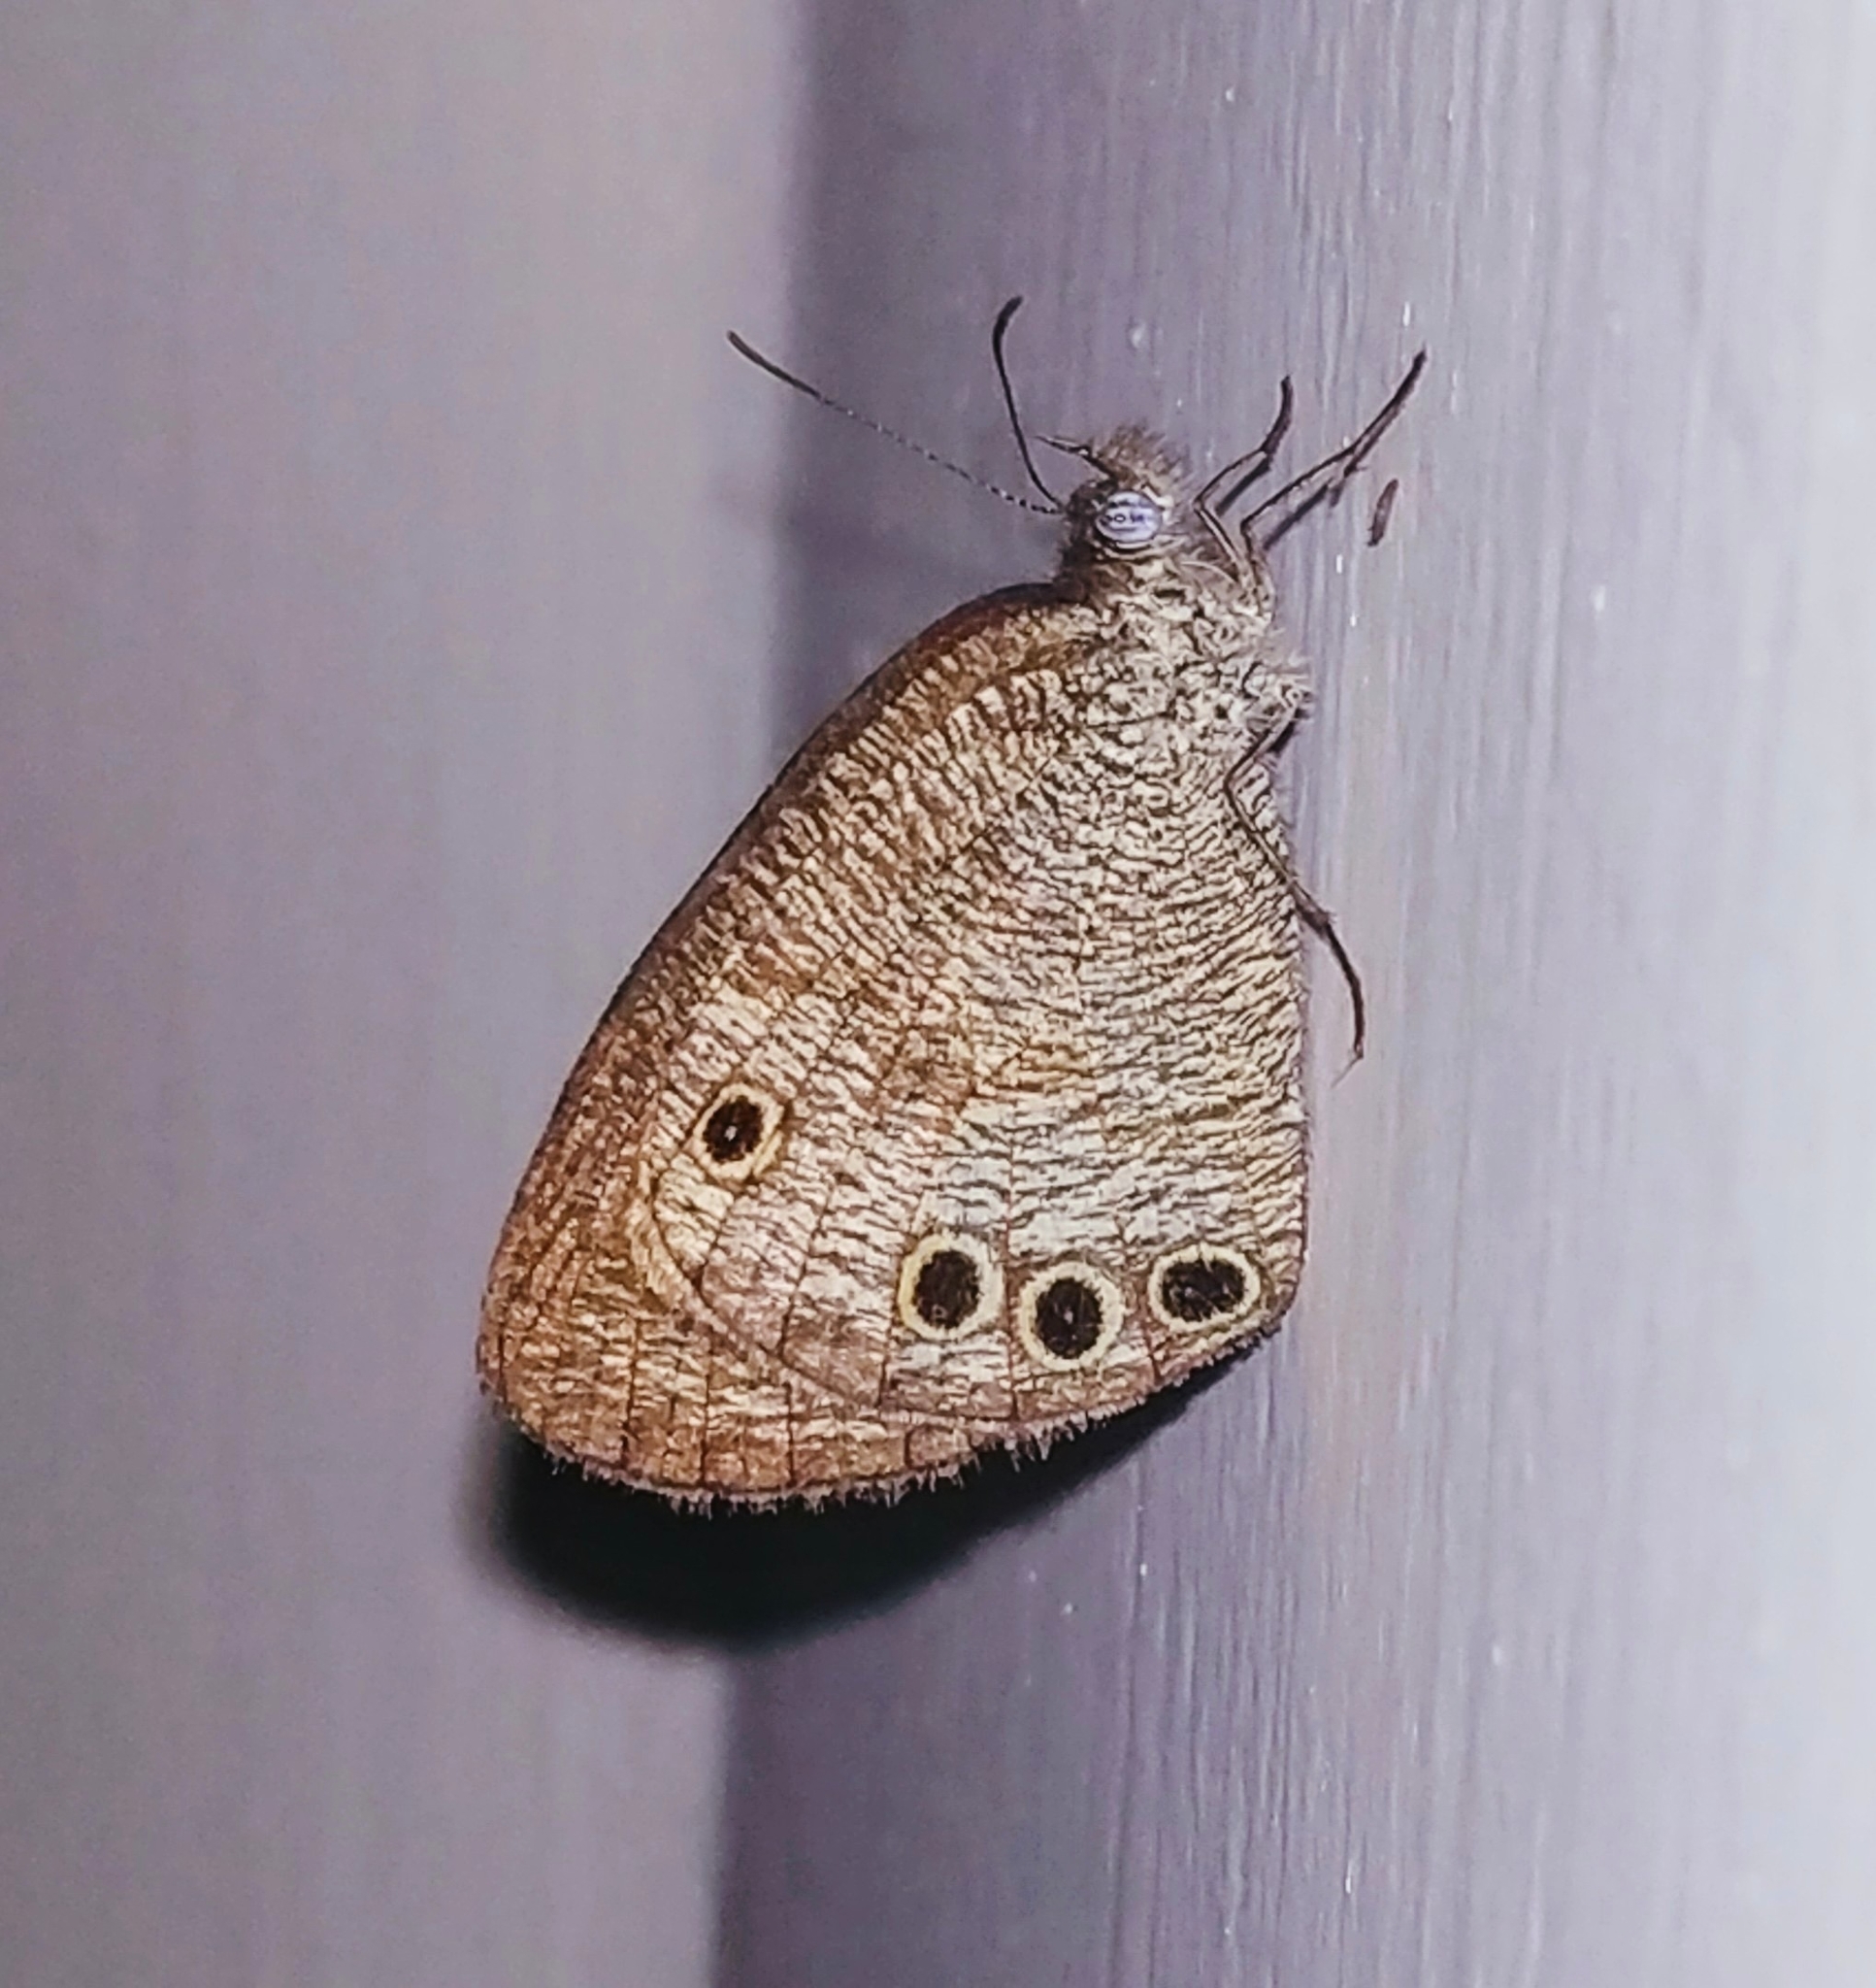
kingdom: Animalia
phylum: Arthropoda
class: Insecta
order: Lepidoptera
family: Nymphalidae
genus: Ypthima
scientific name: Ypthima huebneri
